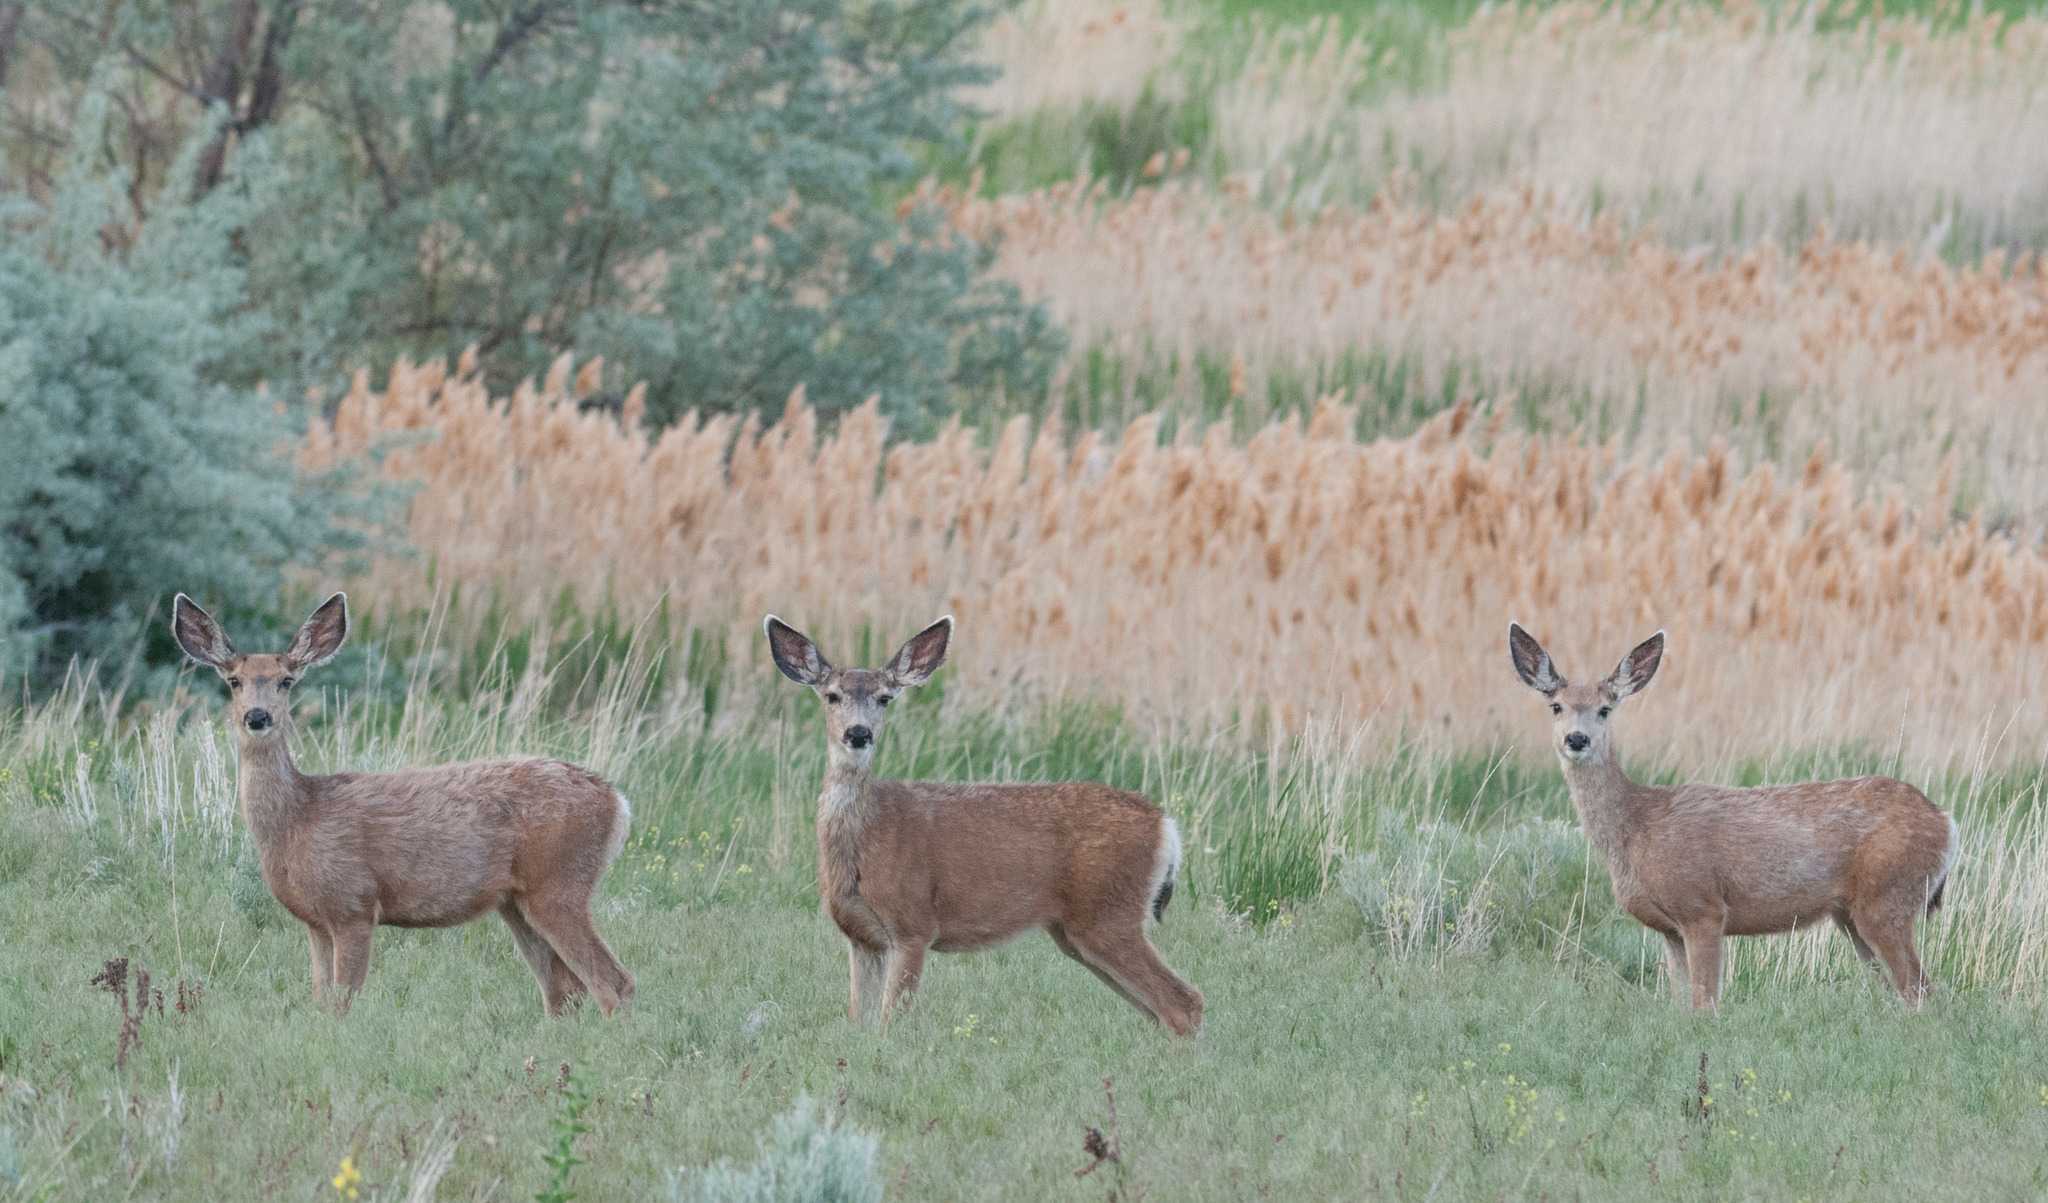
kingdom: Animalia
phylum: Chordata
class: Mammalia
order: Artiodactyla
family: Cervidae
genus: Odocoileus
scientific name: Odocoileus hemionus
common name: Mule deer
